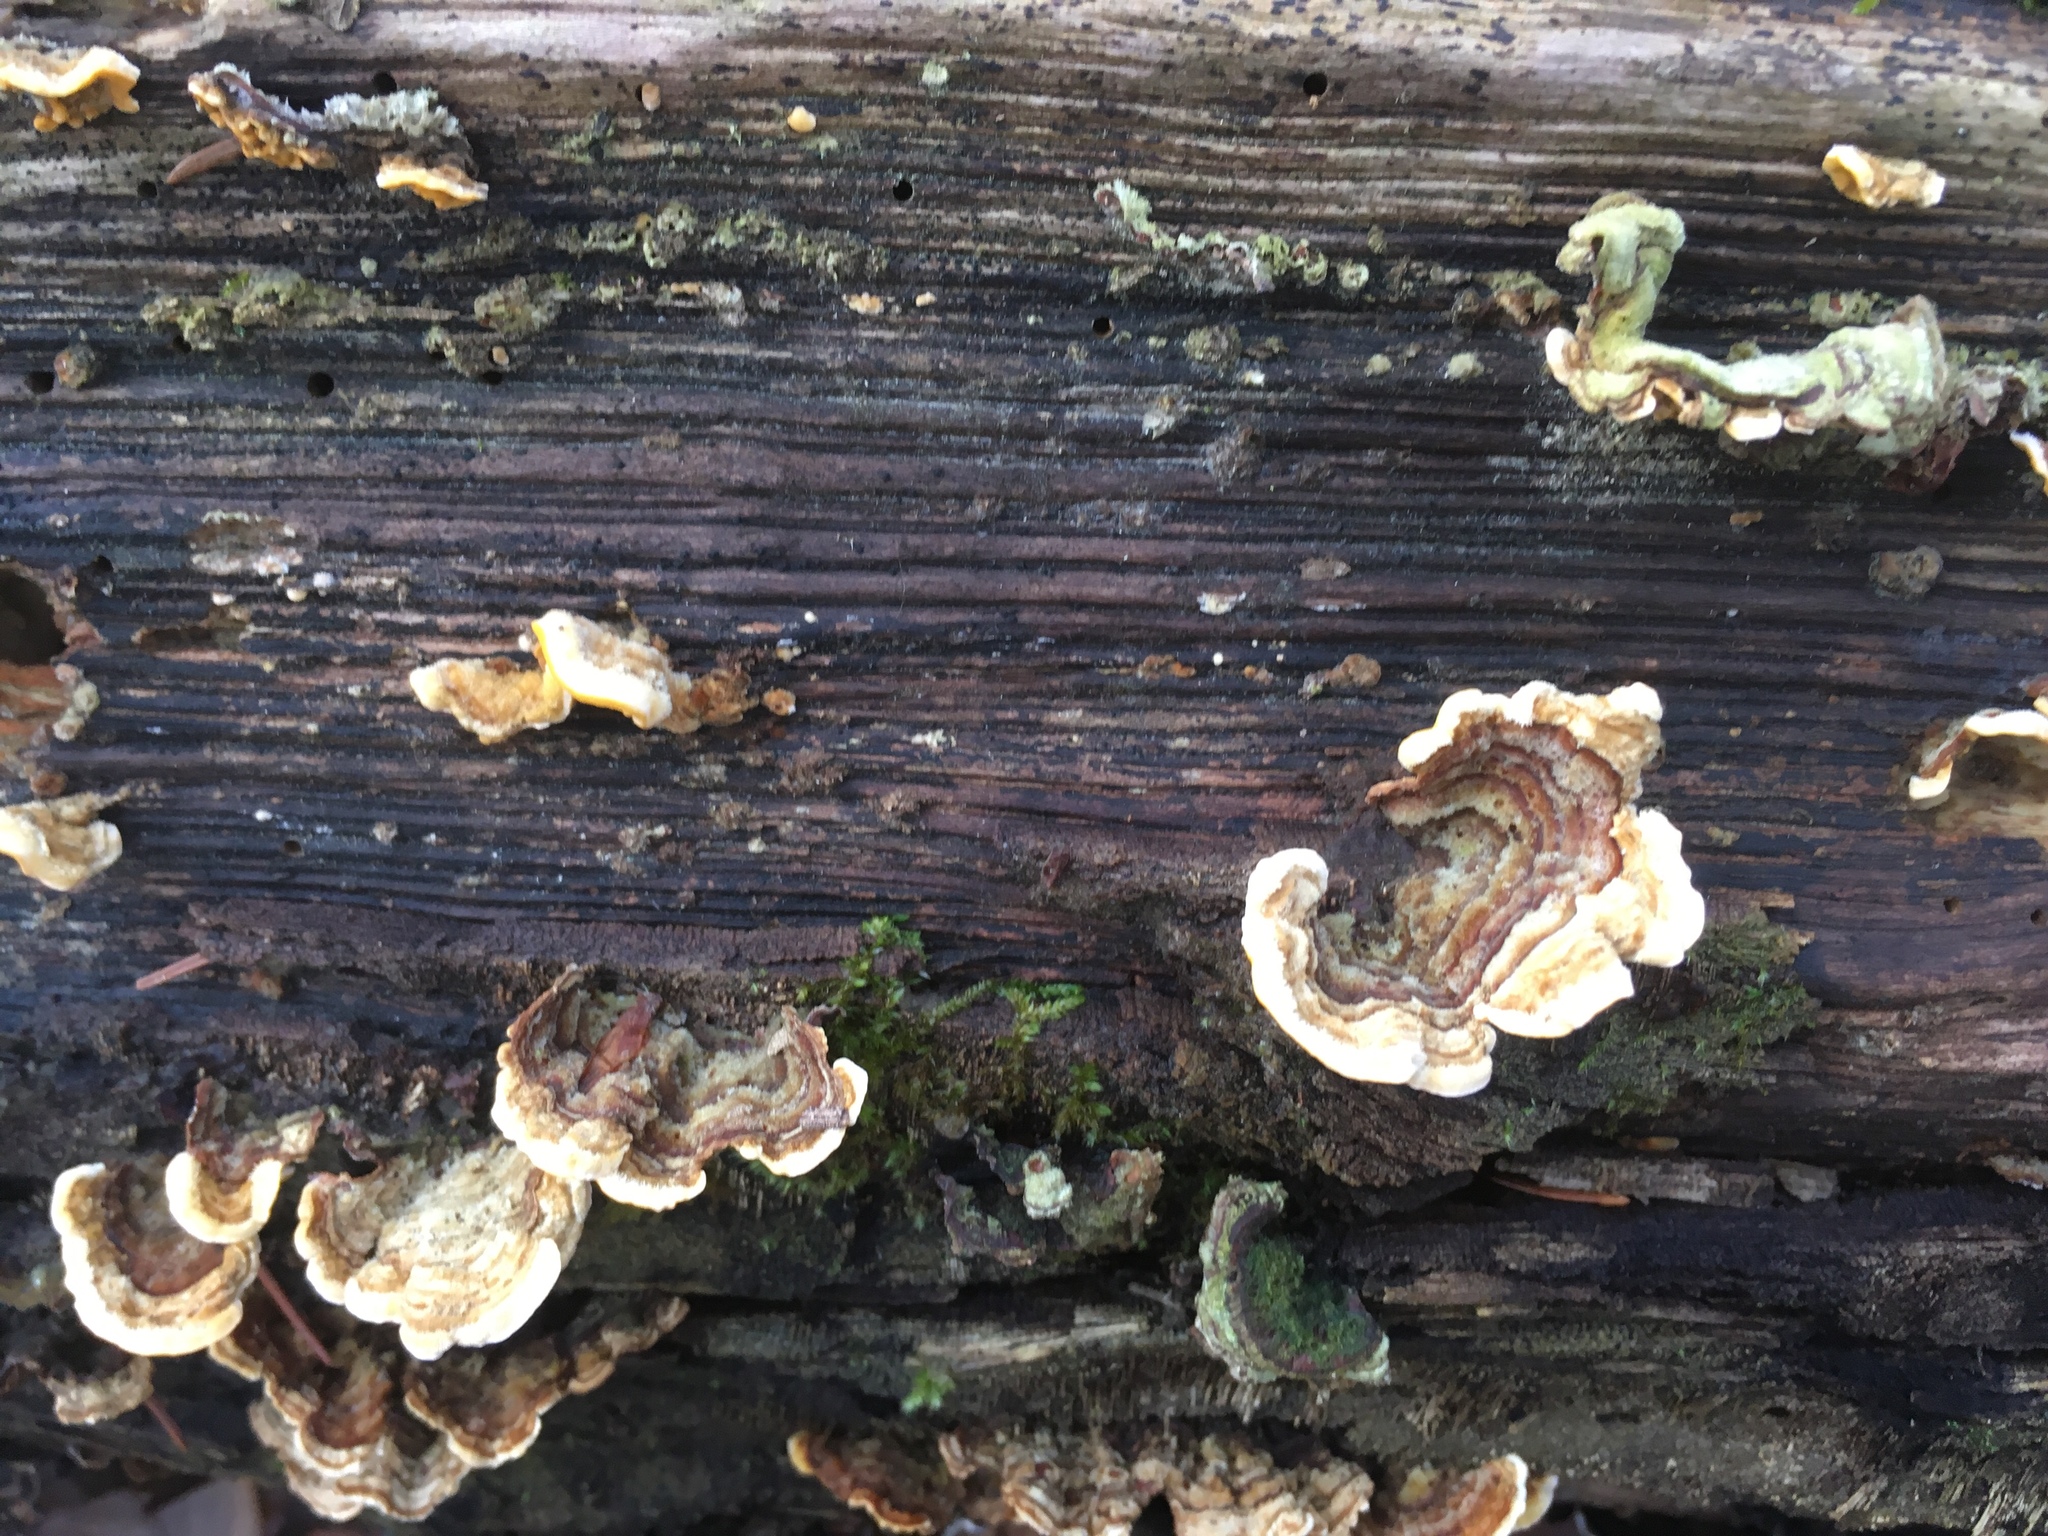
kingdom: Fungi
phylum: Basidiomycota
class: Agaricomycetes
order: Russulales
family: Stereaceae
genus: Stereum
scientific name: Stereum hirsutum
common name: Hairy curtain crust
